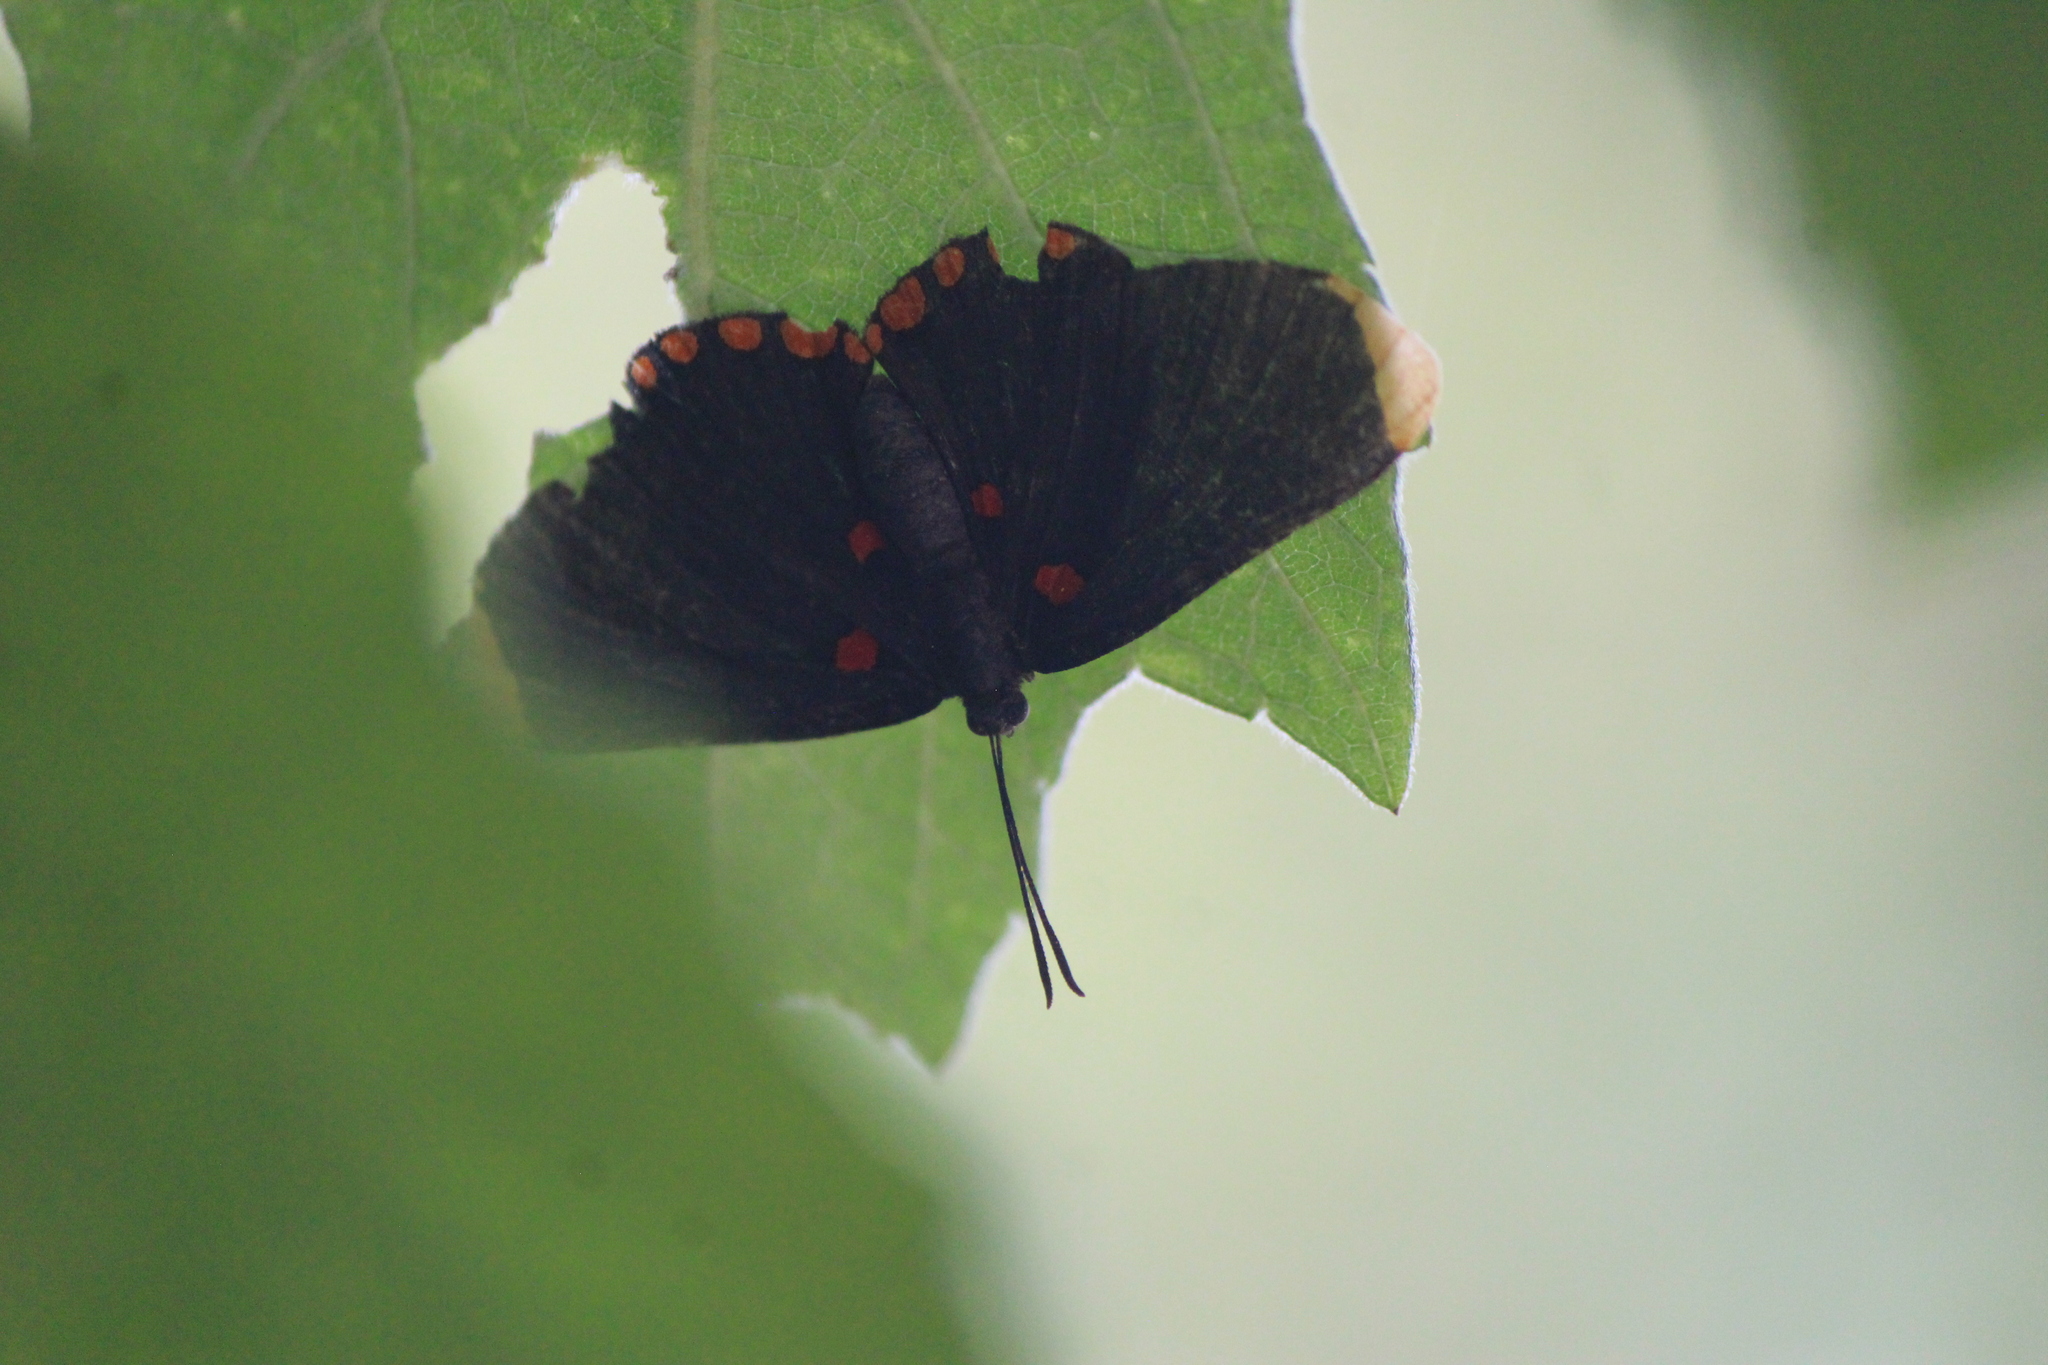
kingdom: Animalia
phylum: Arthropoda
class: Insecta
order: Lepidoptera
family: Lycaenidae
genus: Melanis
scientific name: Melanis pixe
